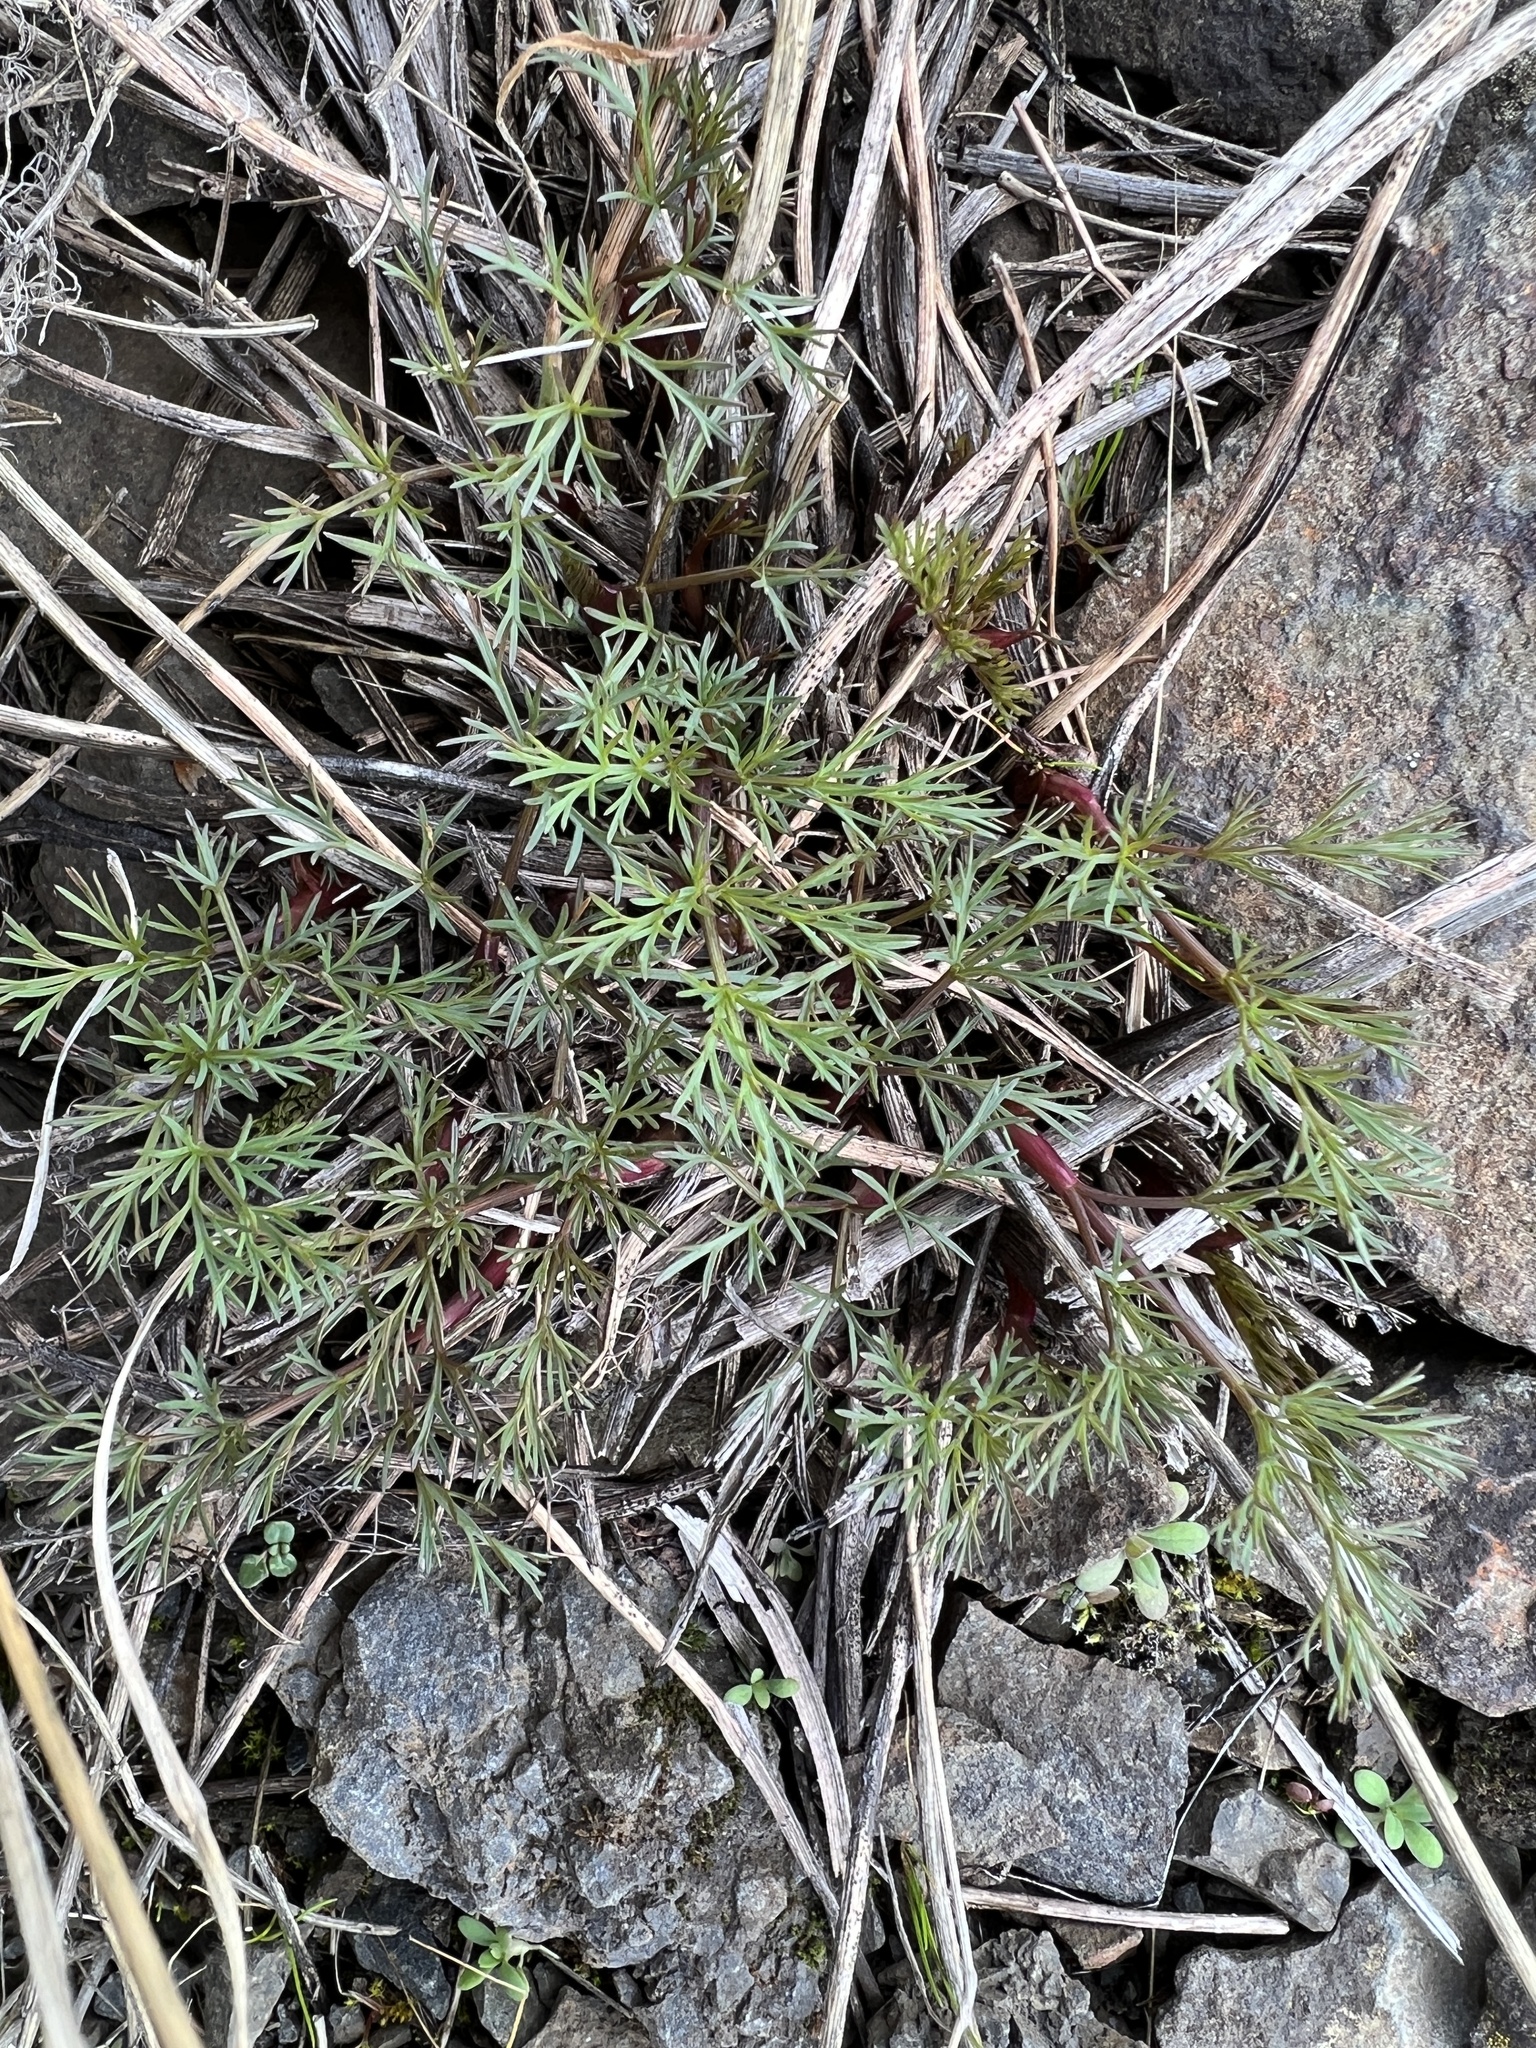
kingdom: Plantae
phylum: Tracheophyta
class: Magnoliopsida
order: Apiales
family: Apiaceae
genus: Lomatium
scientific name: Lomatium klickitatense
